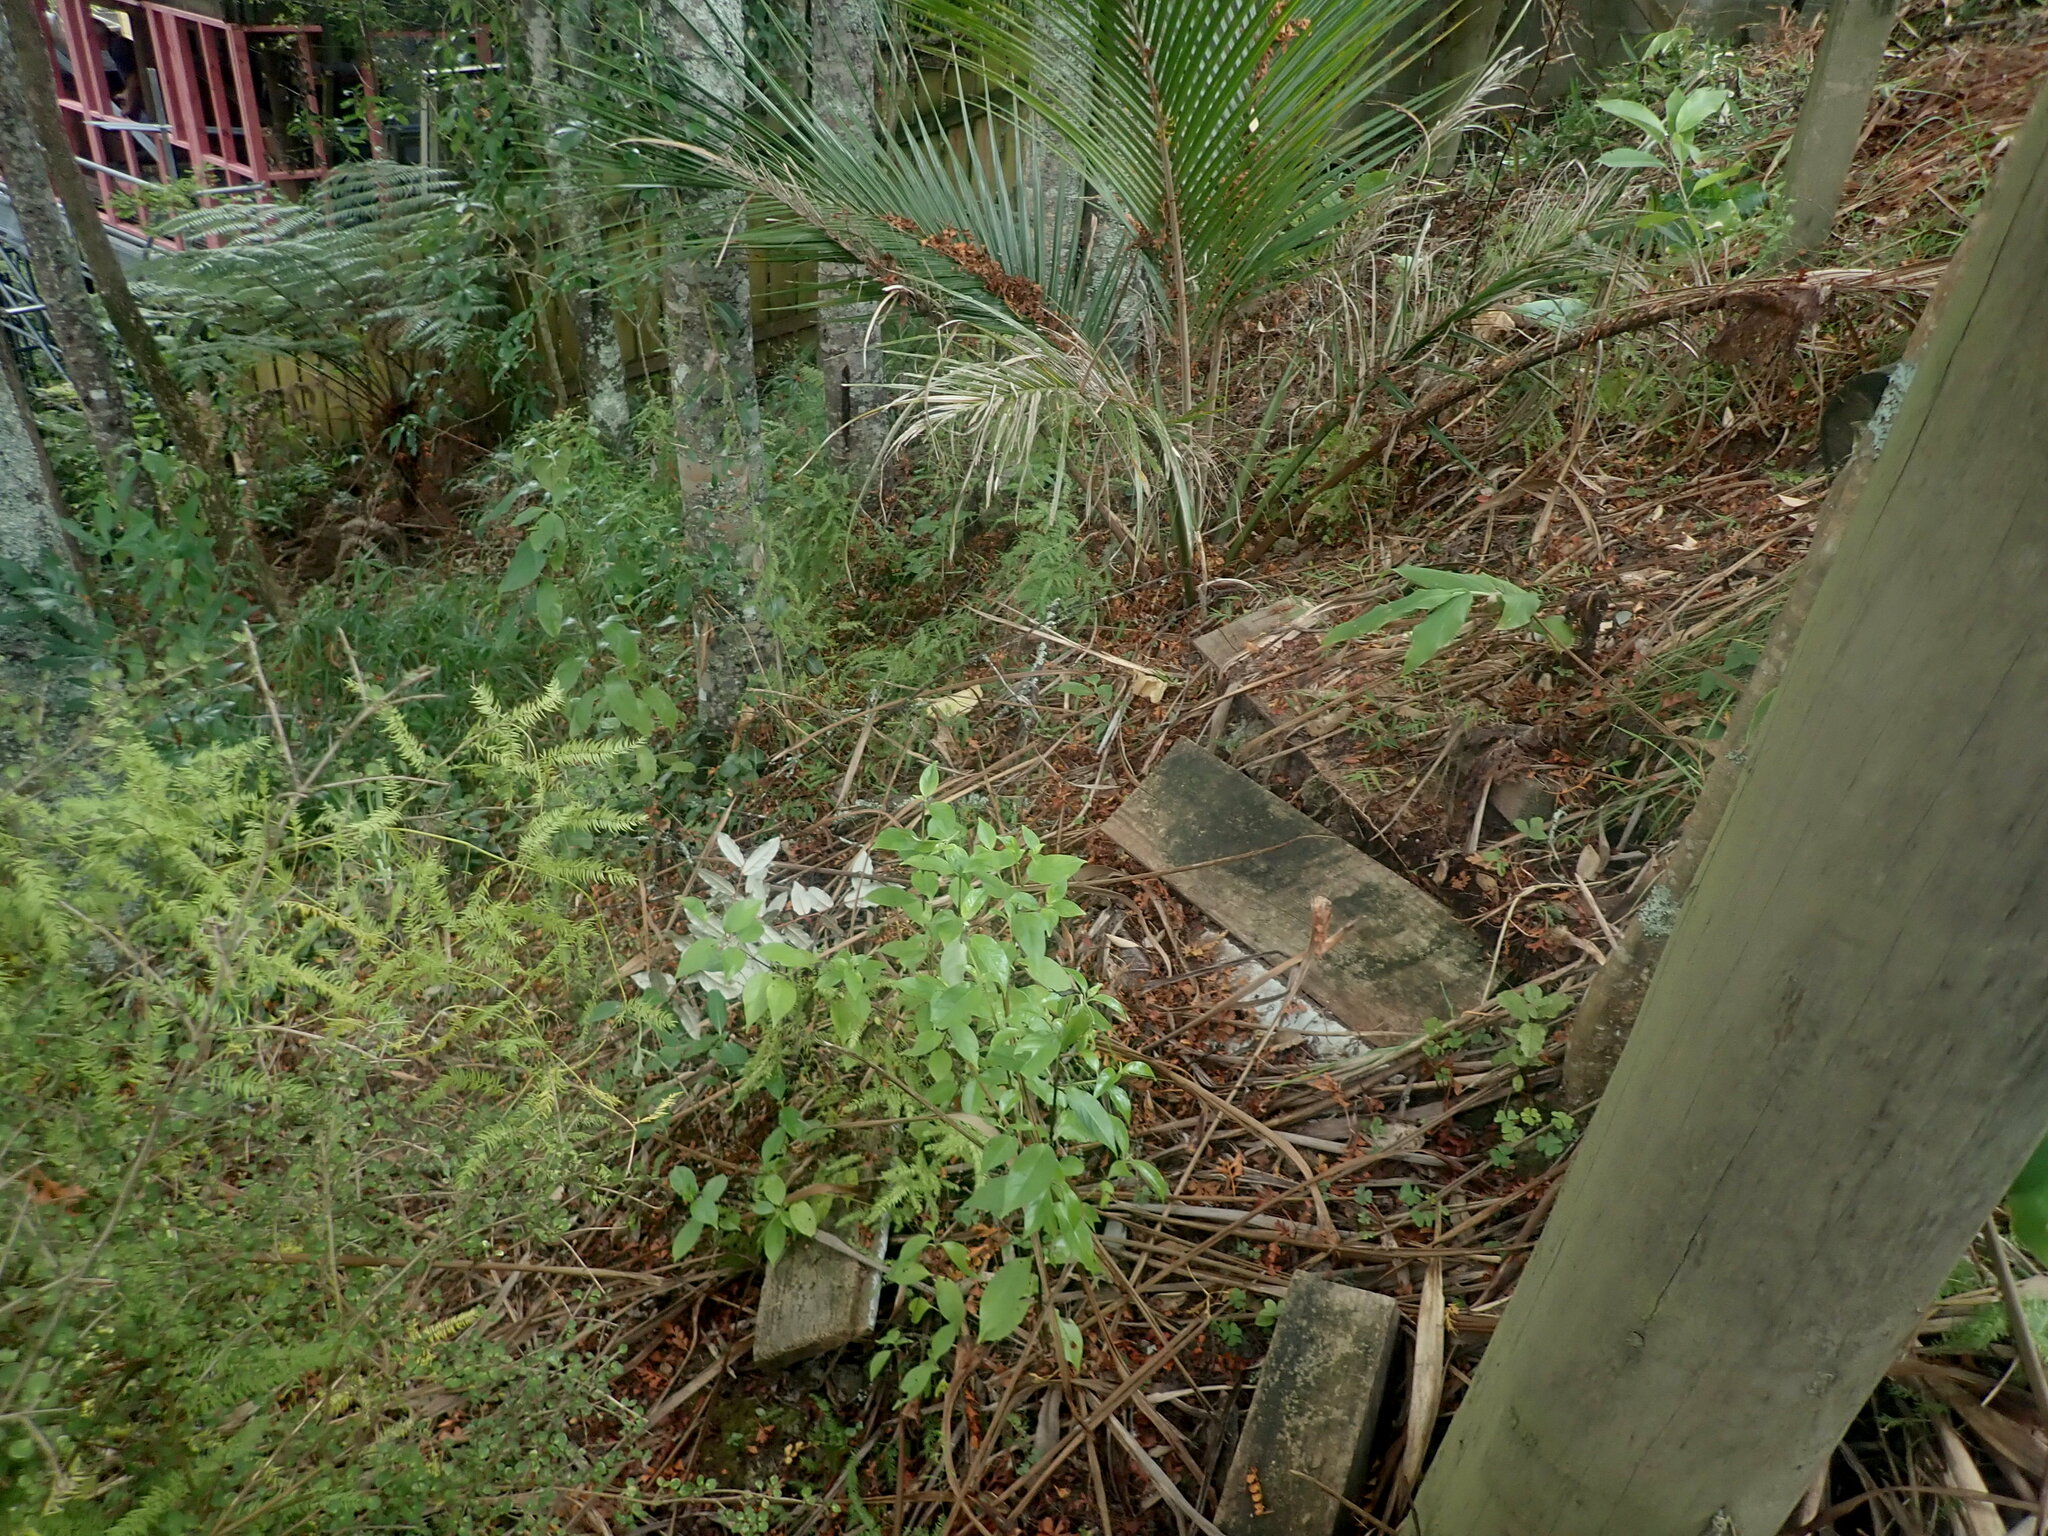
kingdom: Plantae
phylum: Tracheophyta
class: Magnoliopsida
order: Gentianales
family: Loganiaceae
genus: Geniostoma
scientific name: Geniostoma ligustrifolium
